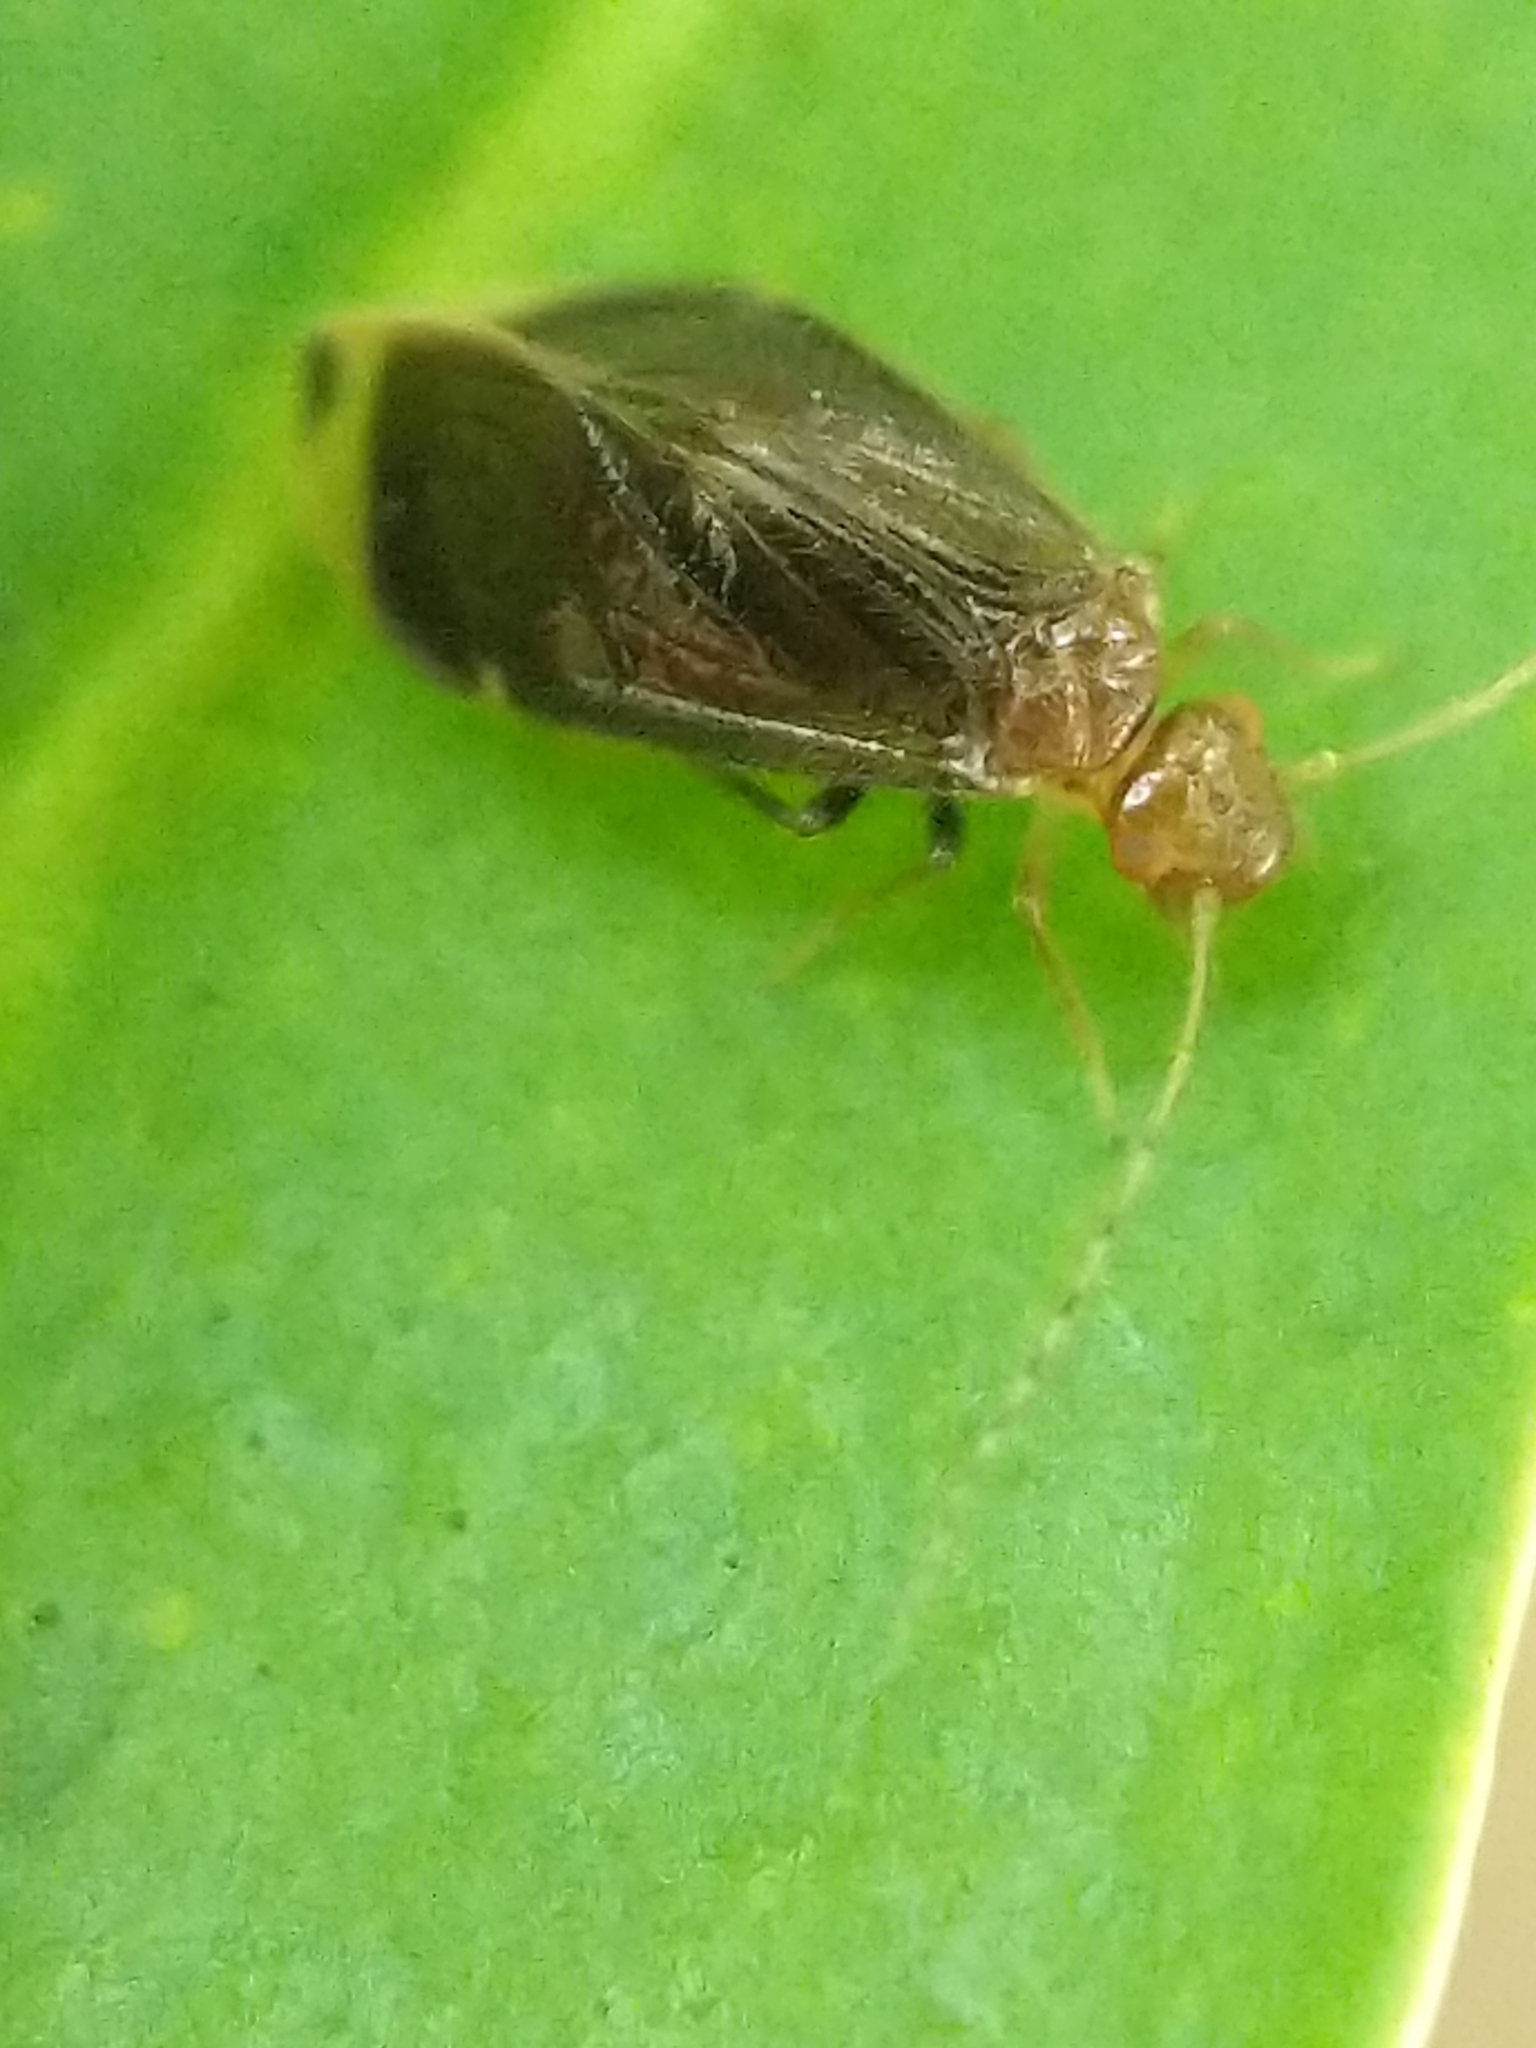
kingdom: Animalia
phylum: Arthropoda
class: Insecta
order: Psocodea
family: Amphipsocidae
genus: Polypsocus
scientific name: Polypsocus corruptus
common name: Corrupt barklouse
